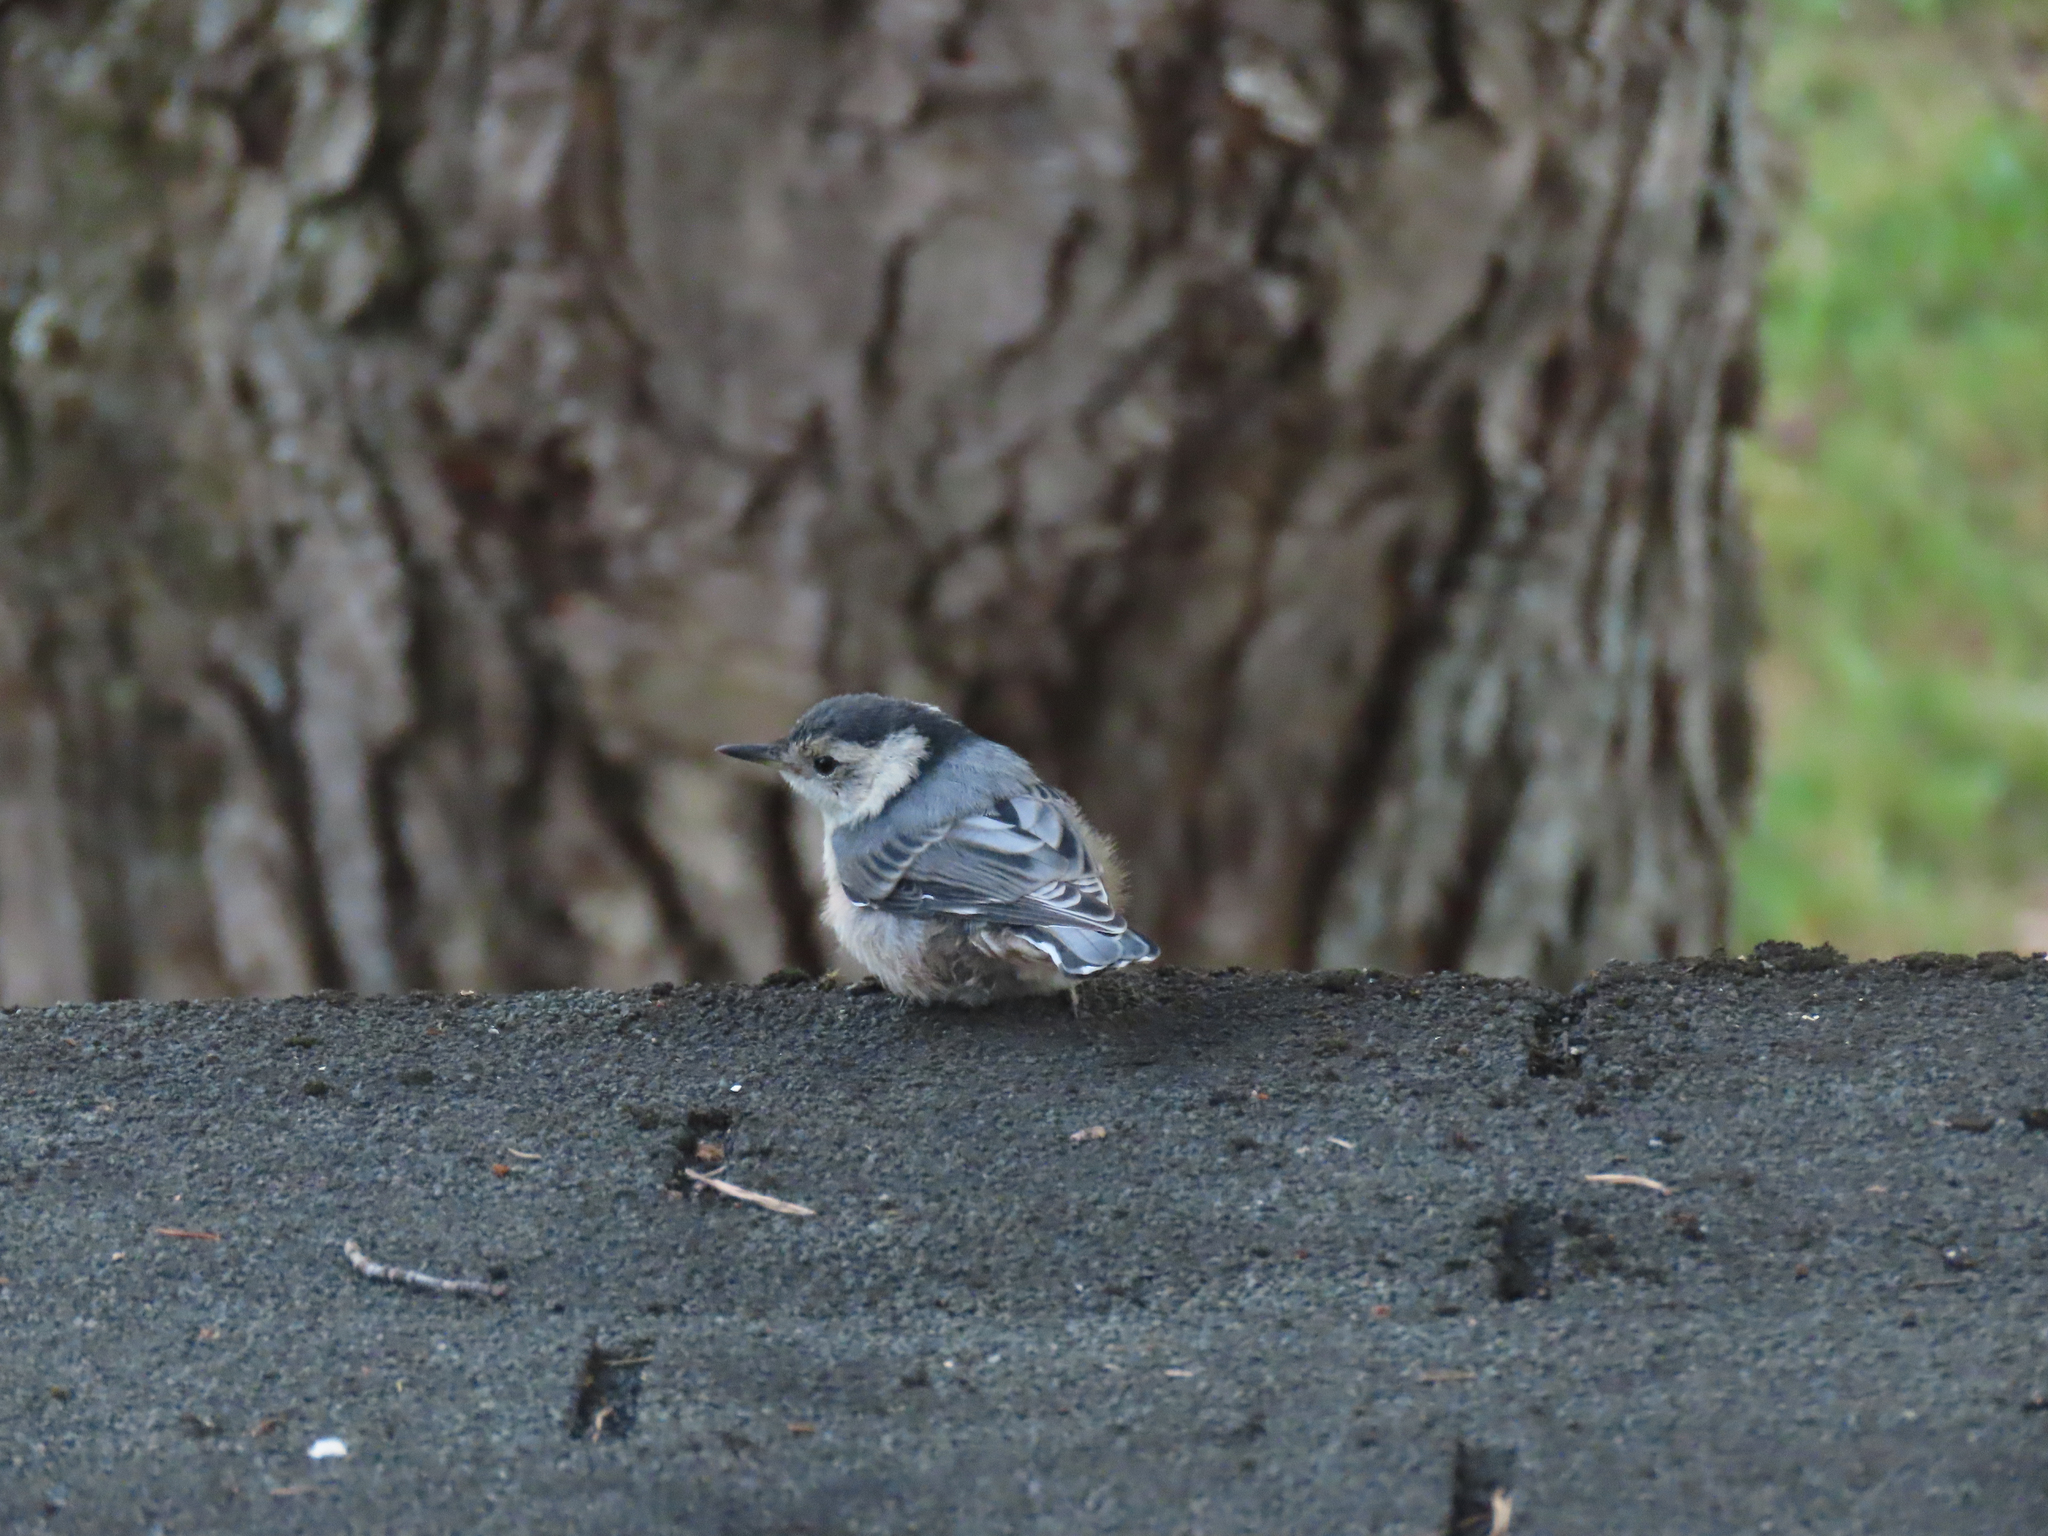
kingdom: Animalia
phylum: Chordata
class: Aves
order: Passeriformes
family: Sittidae
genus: Sitta
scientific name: Sitta carolinensis
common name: White-breasted nuthatch
